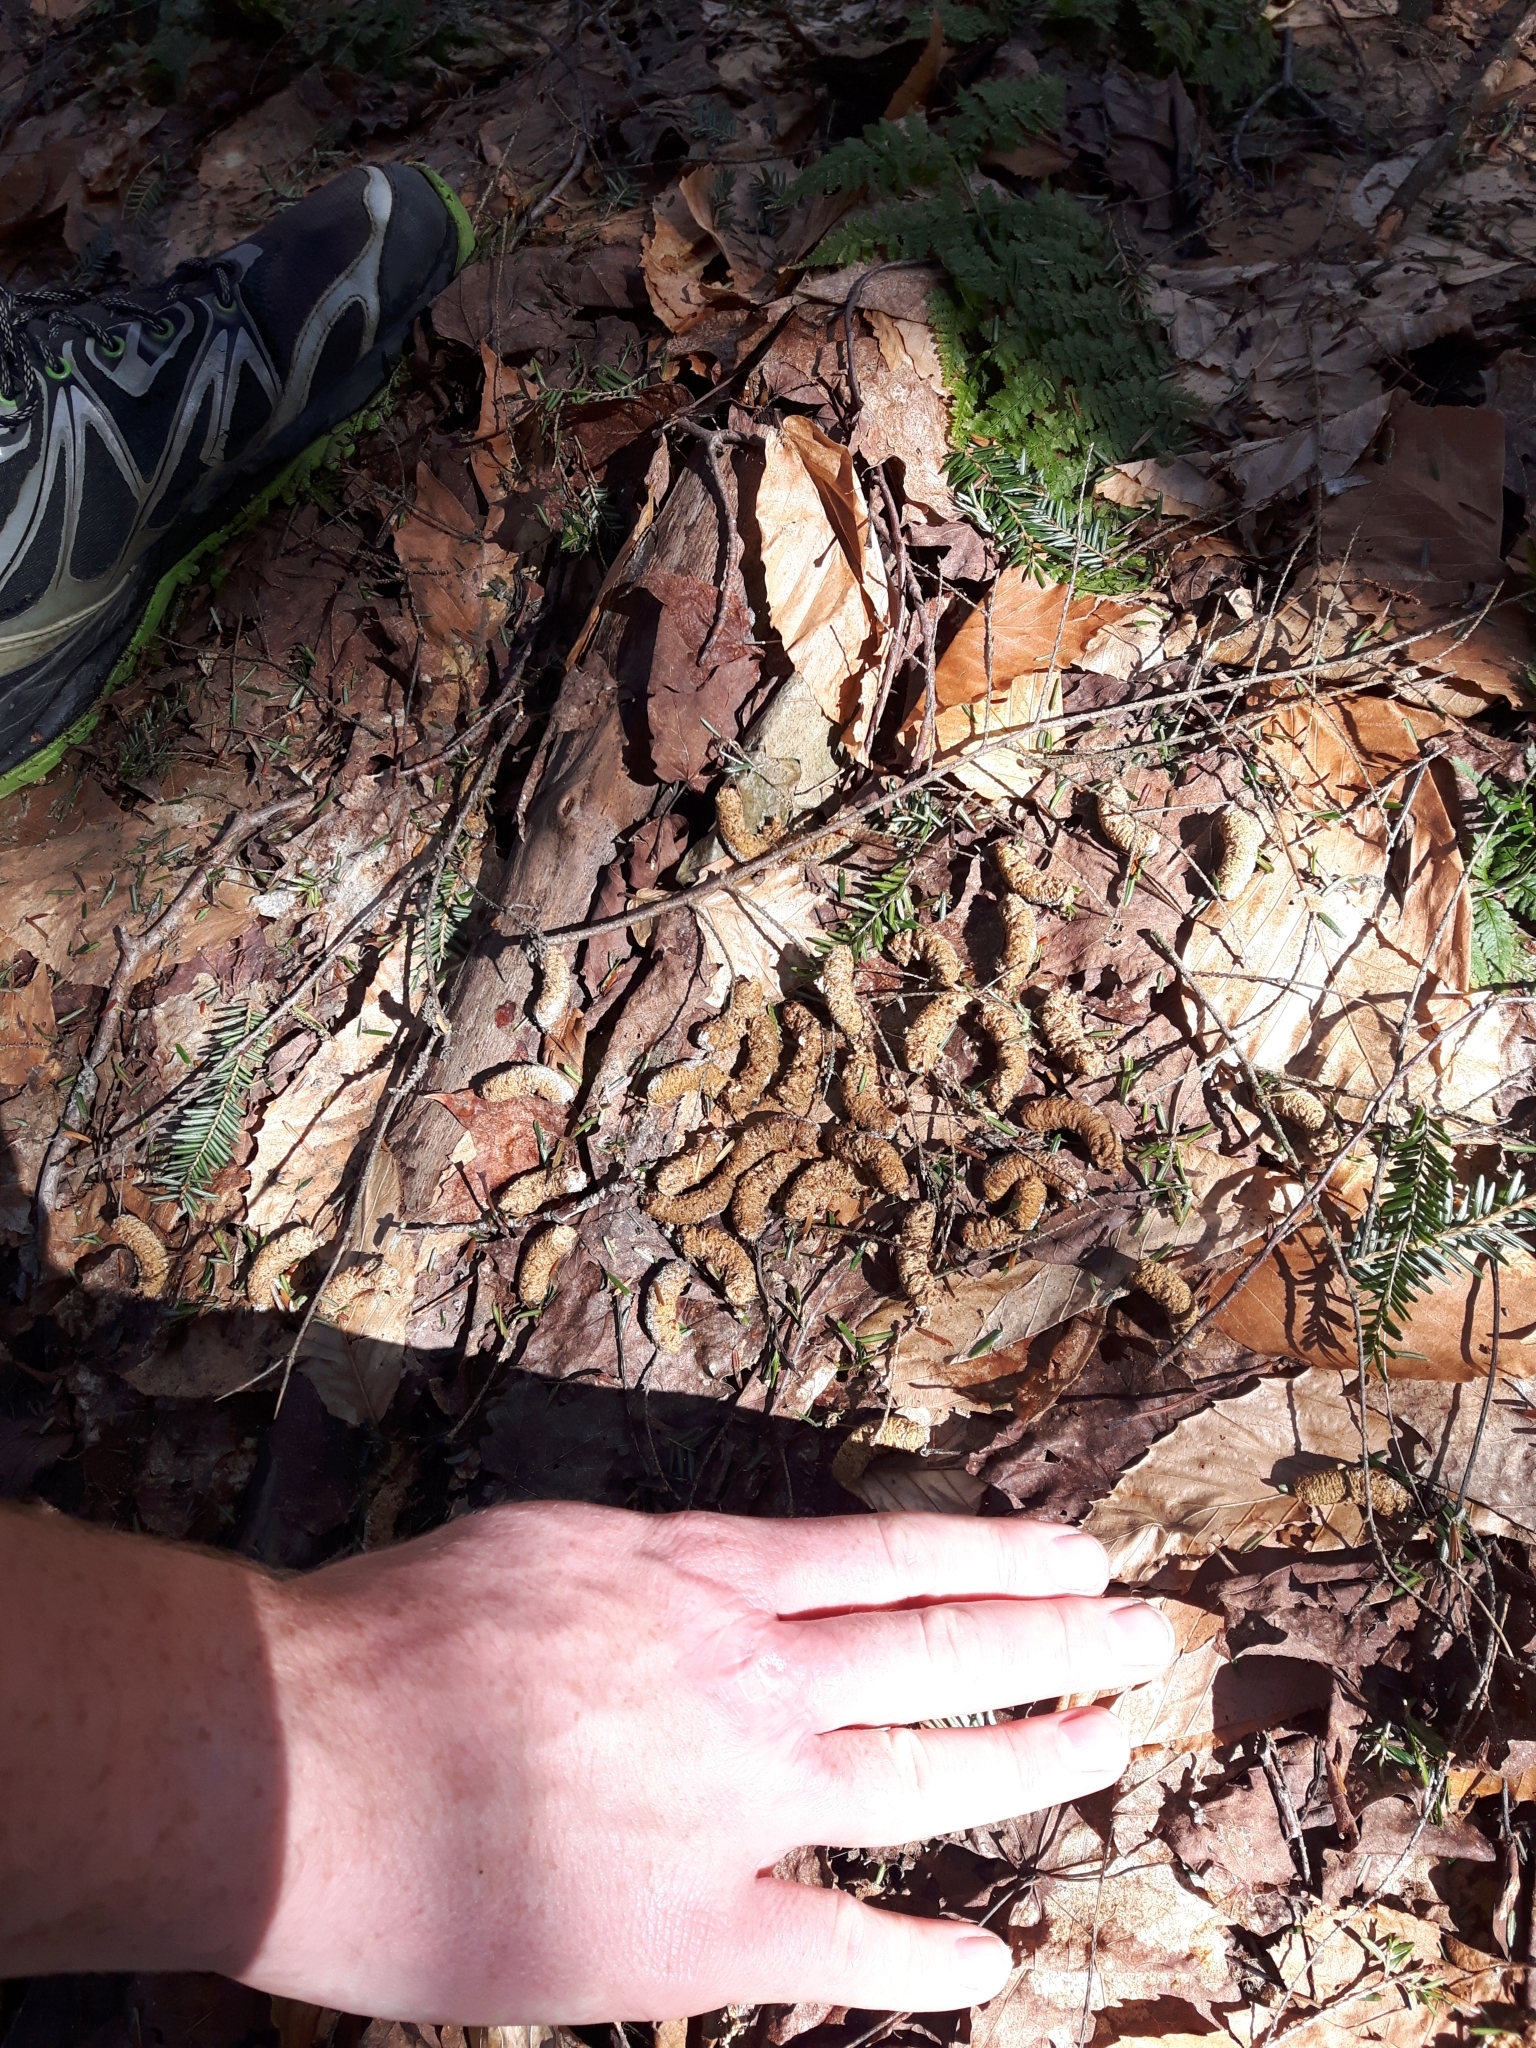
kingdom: Animalia
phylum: Chordata
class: Aves
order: Galliformes
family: Phasianidae
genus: Bonasa
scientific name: Bonasa umbellus
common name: Ruffed grouse
